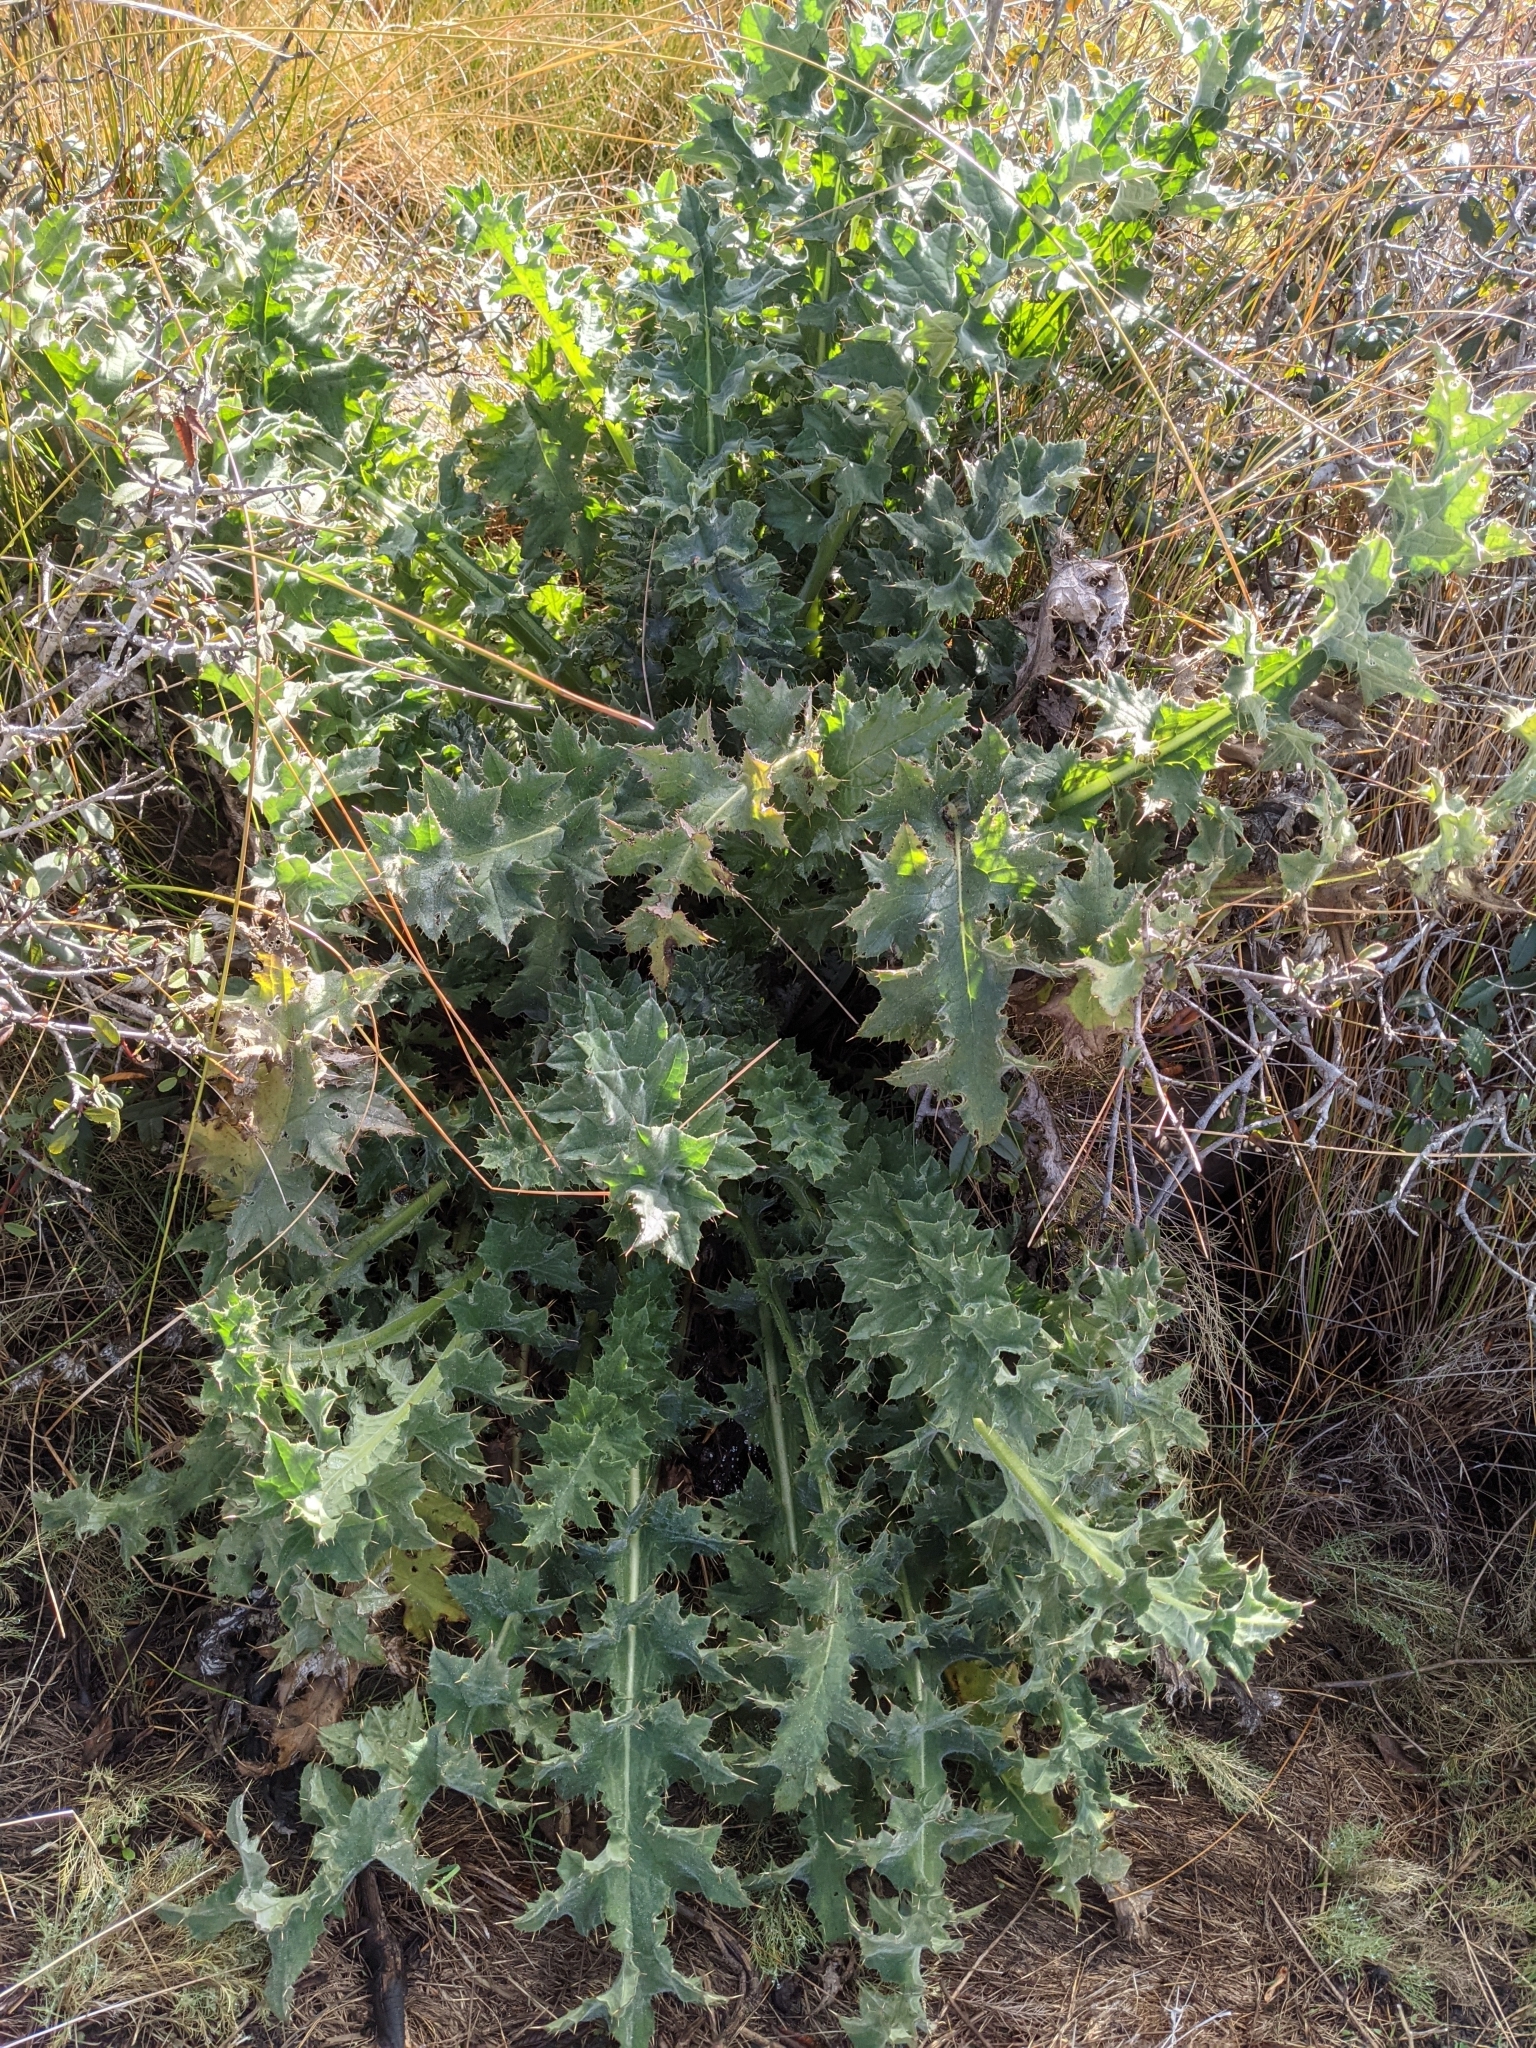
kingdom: Plantae
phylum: Tracheophyta
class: Magnoliopsida
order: Asterales
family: Asteraceae
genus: Cirsium
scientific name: Cirsium fontinale
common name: Fountain thistle
